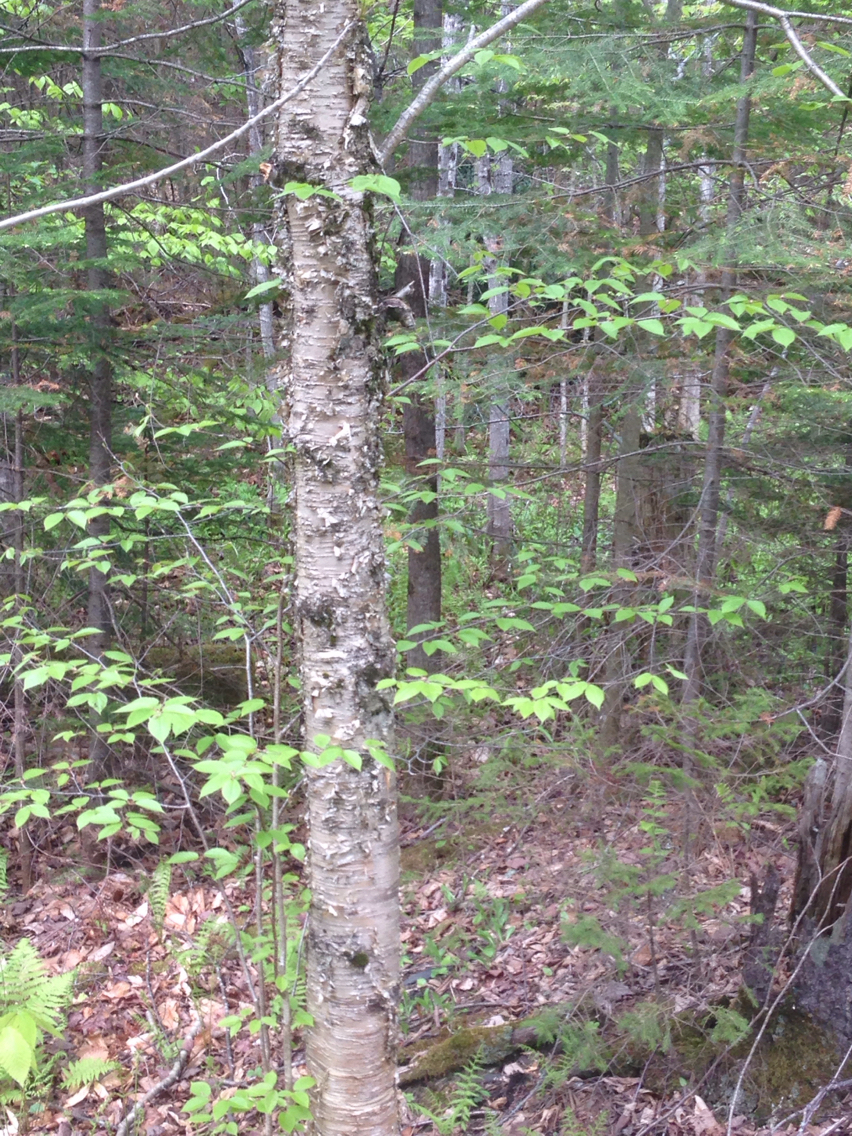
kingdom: Plantae
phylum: Tracheophyta
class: Magnoliopsida
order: Fagales
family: Betulaceae
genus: Betula
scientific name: Betula alleghaniensis
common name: Yellow birch
